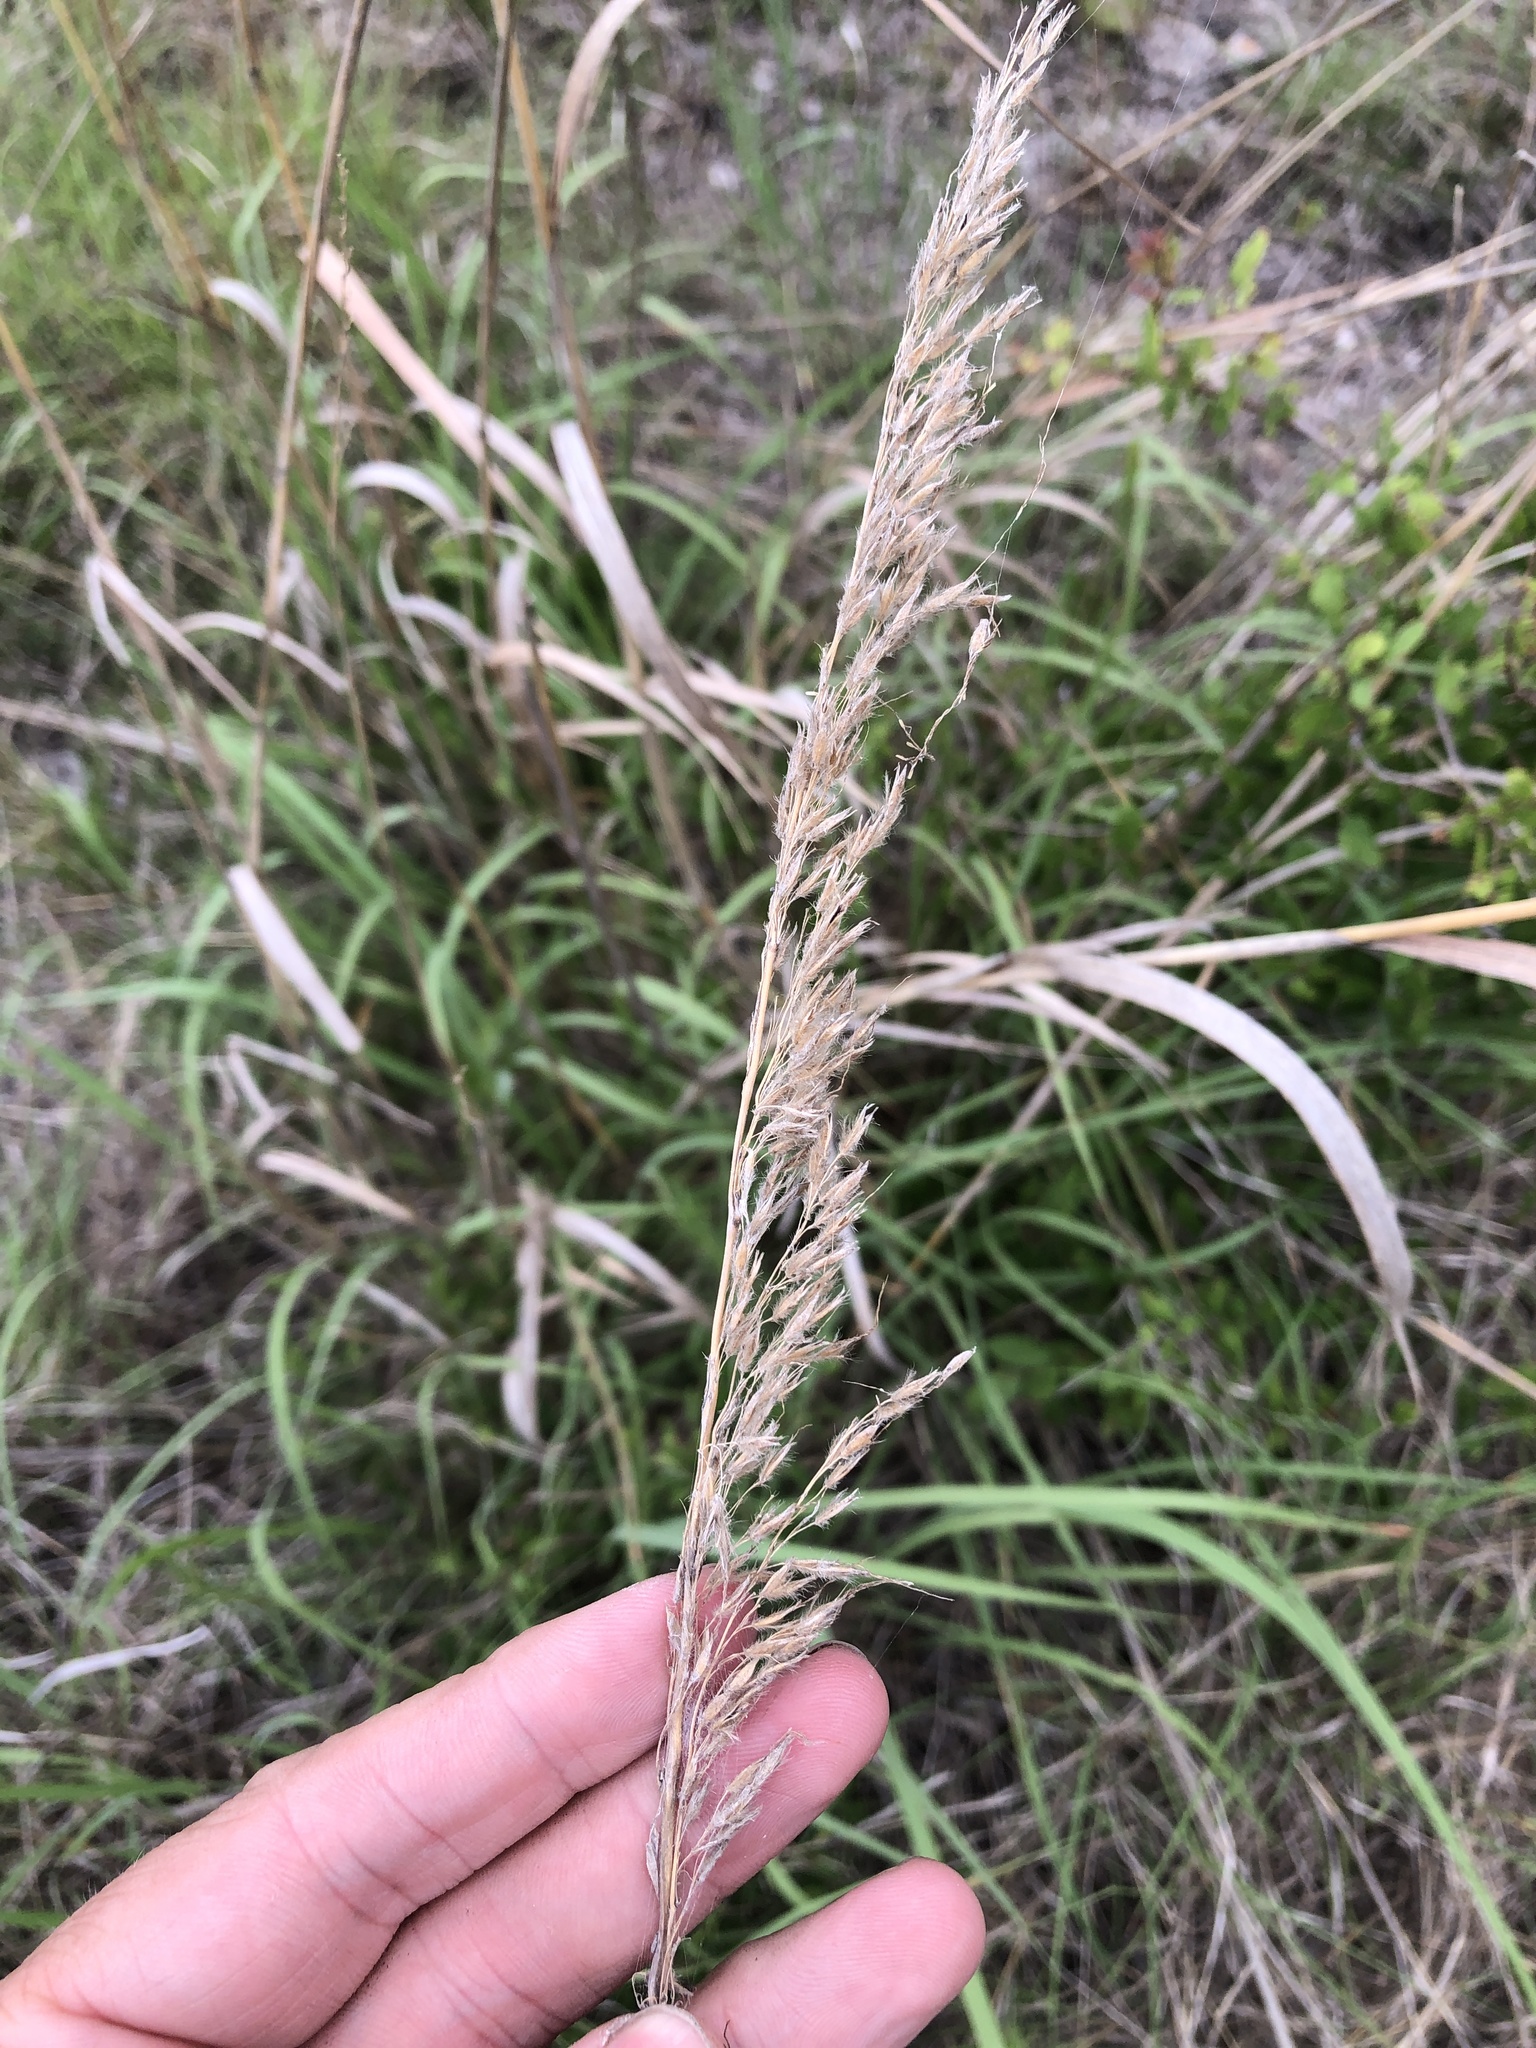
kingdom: Plantae
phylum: Tracheophyta
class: Liliopsida
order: Poales
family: Poaceae
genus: Sorghastrum
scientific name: Sorghastrum nutans
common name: Indian grass
